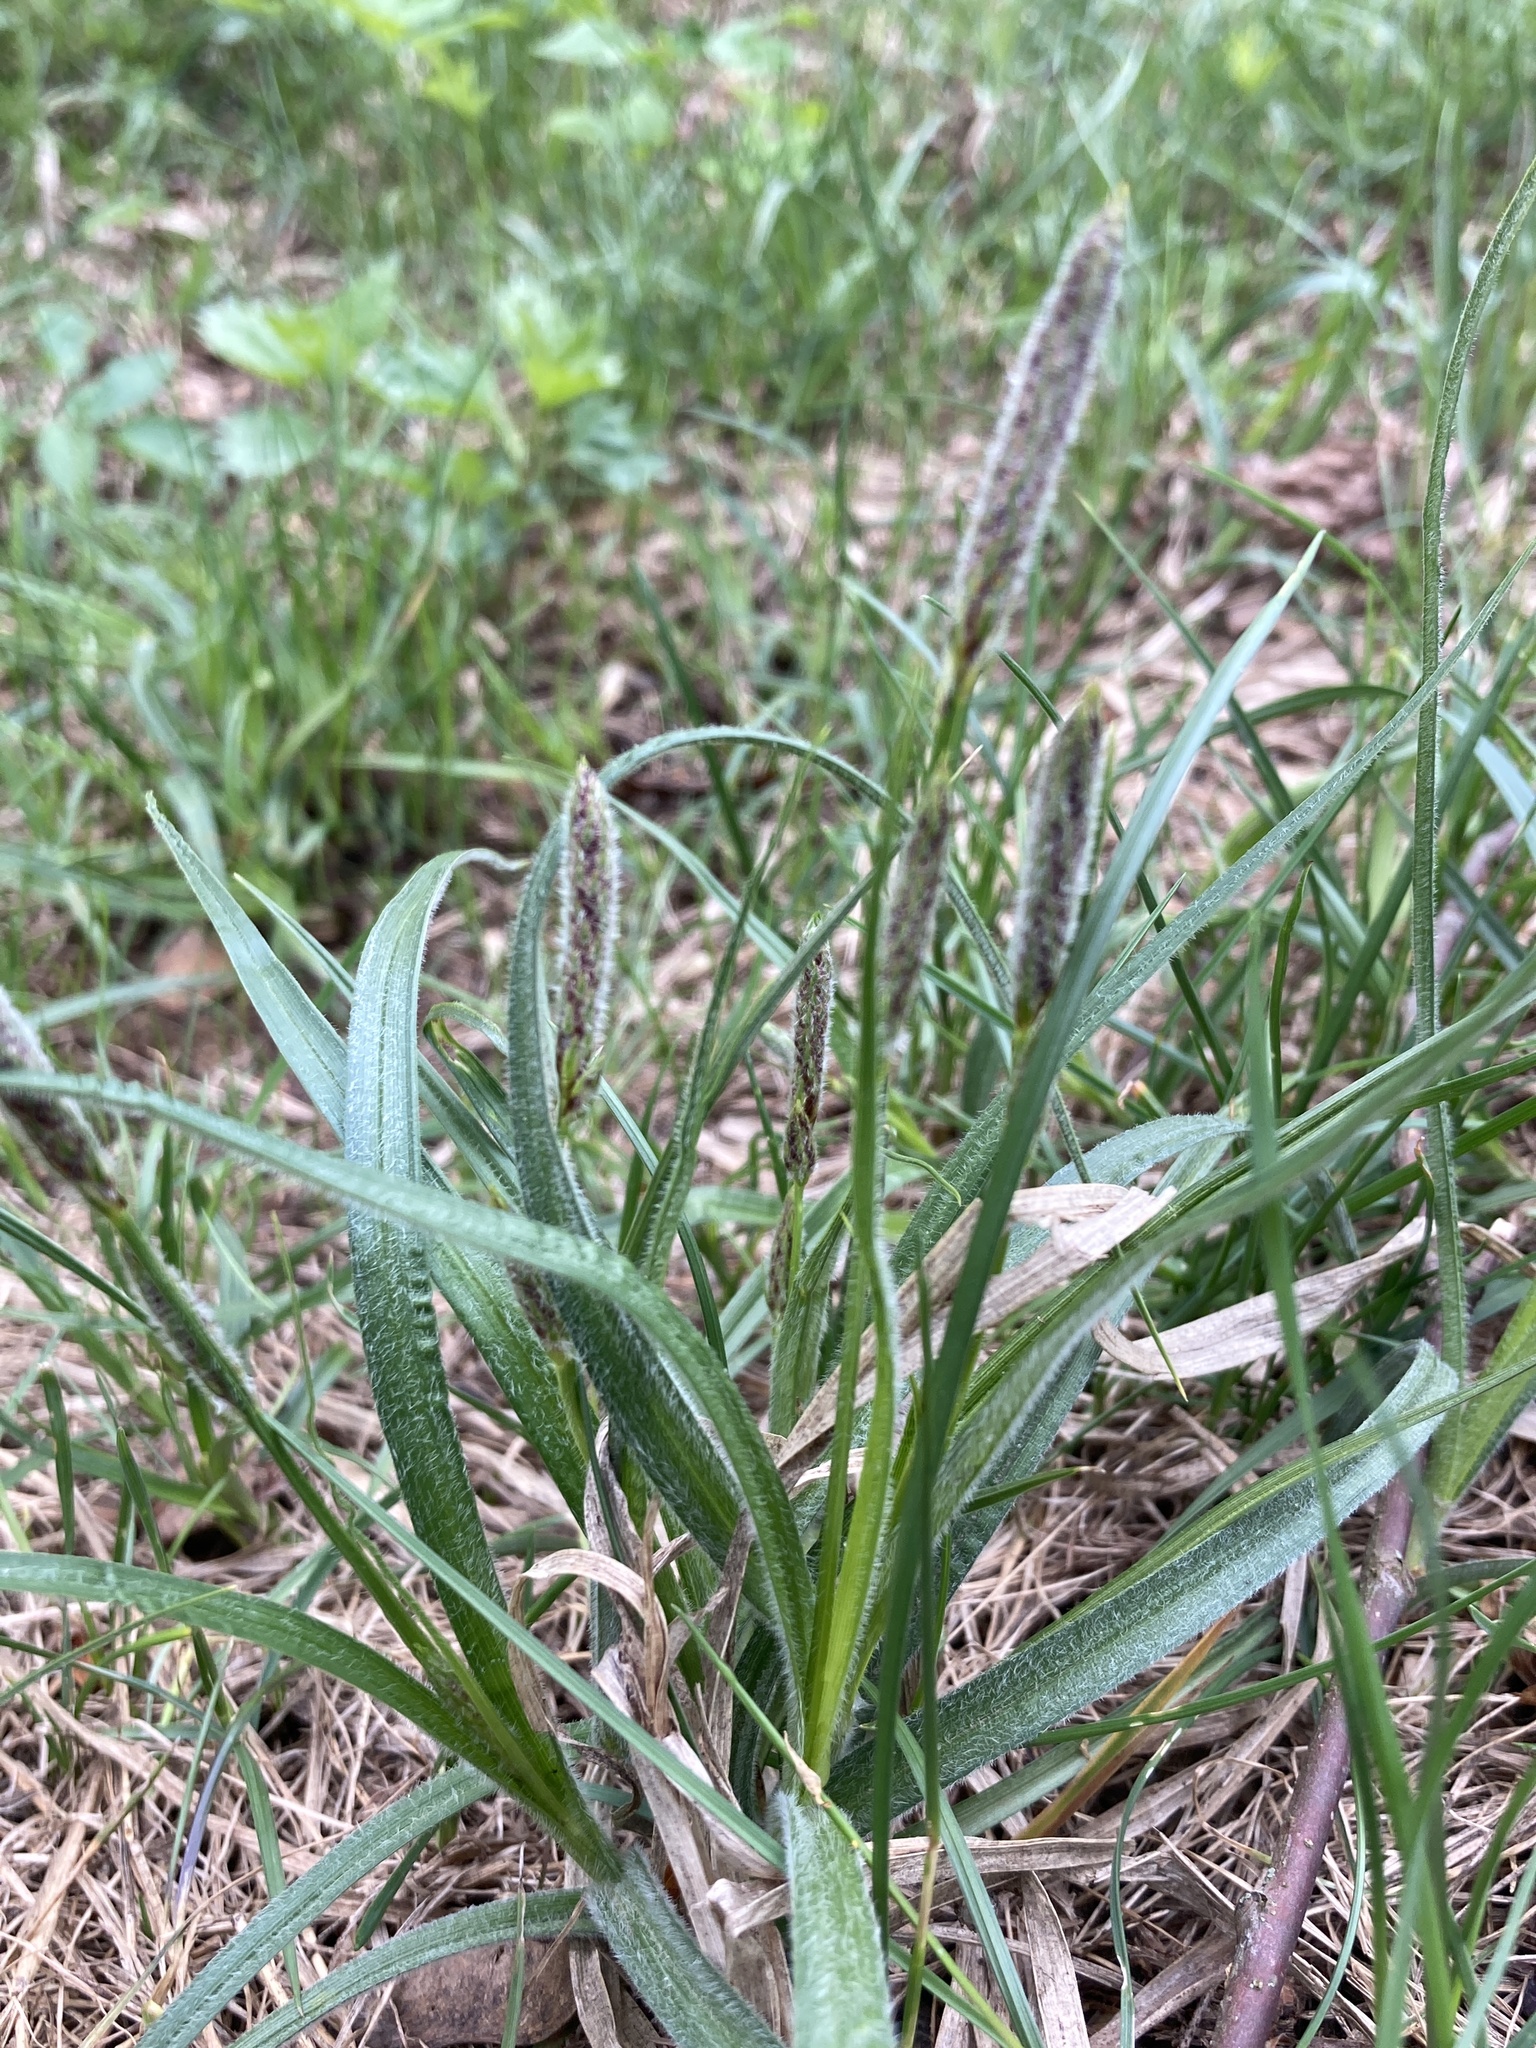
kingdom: Plantae
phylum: Tracheophyta
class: Liliopsida
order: Poales
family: Cyperaceae
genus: Carex
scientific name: Carex hirta
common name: Hairy sedge
